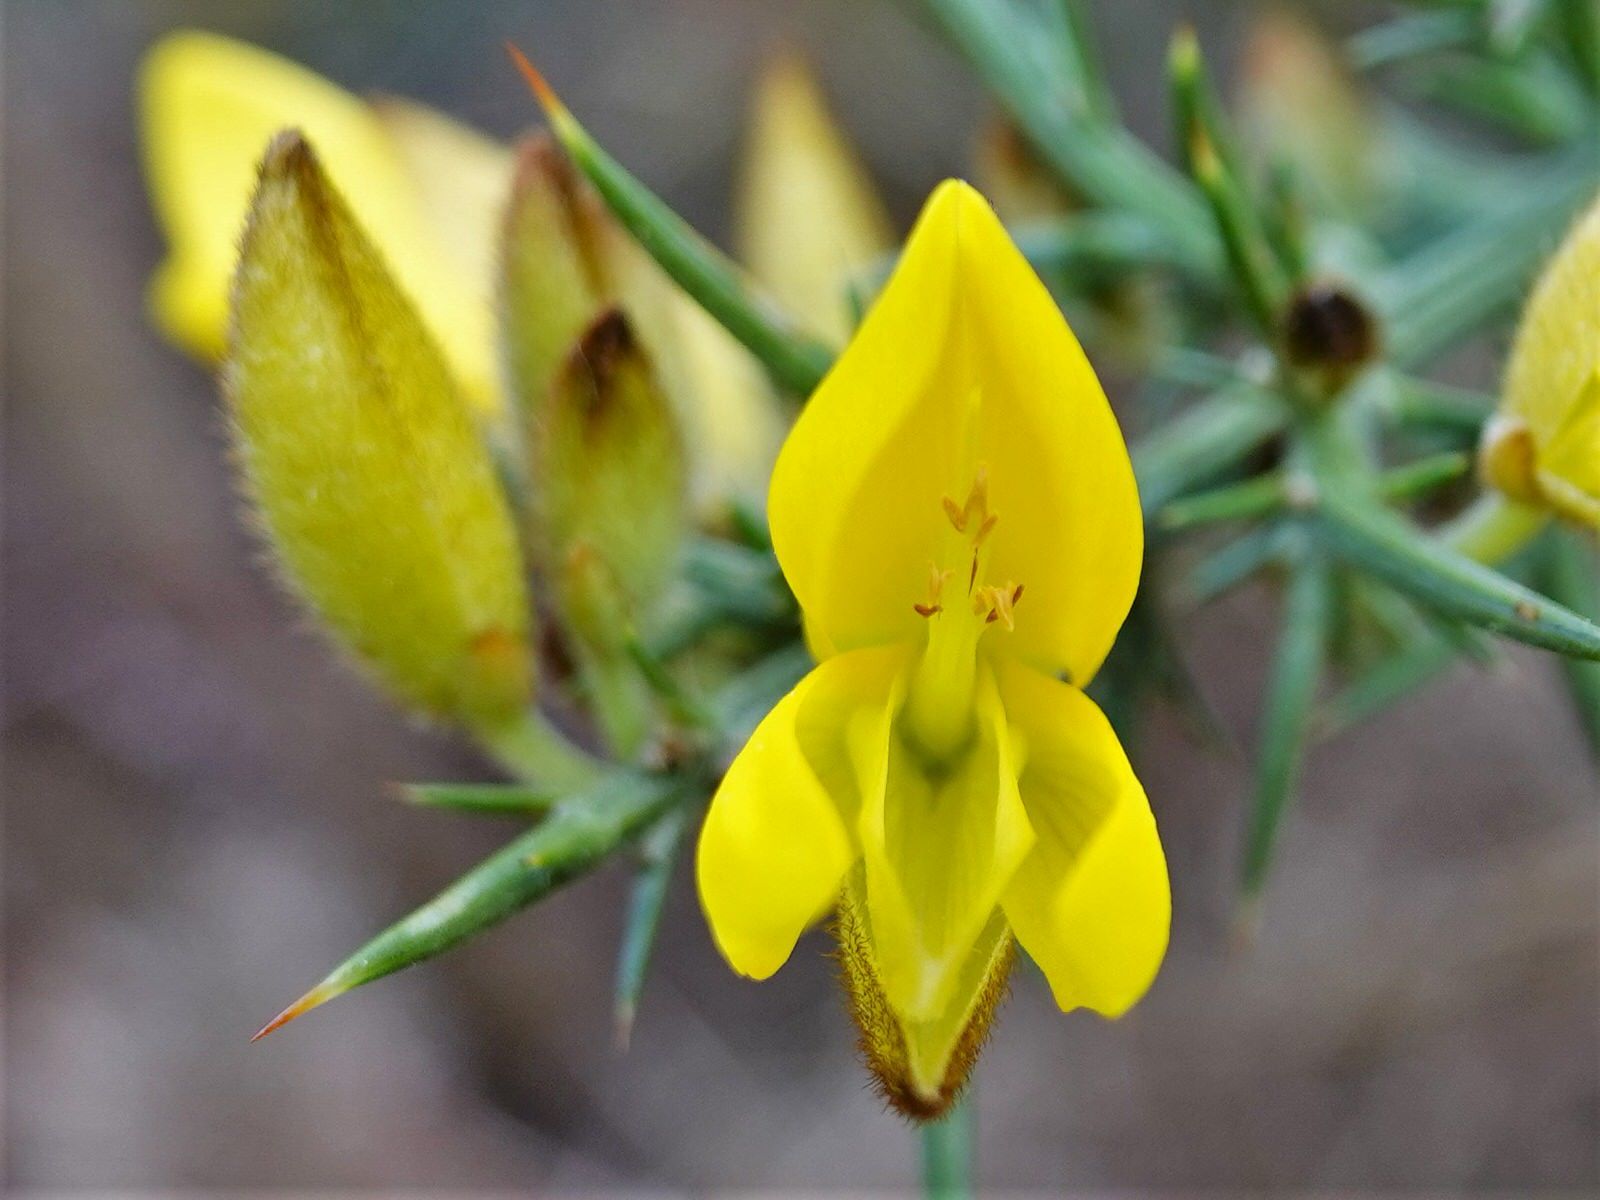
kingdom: Plantae
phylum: Tracheophyta
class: Magnoliopsida
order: Fabales
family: Fabaceae
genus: Ulex
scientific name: Ulex europaeus
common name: Common gorse
